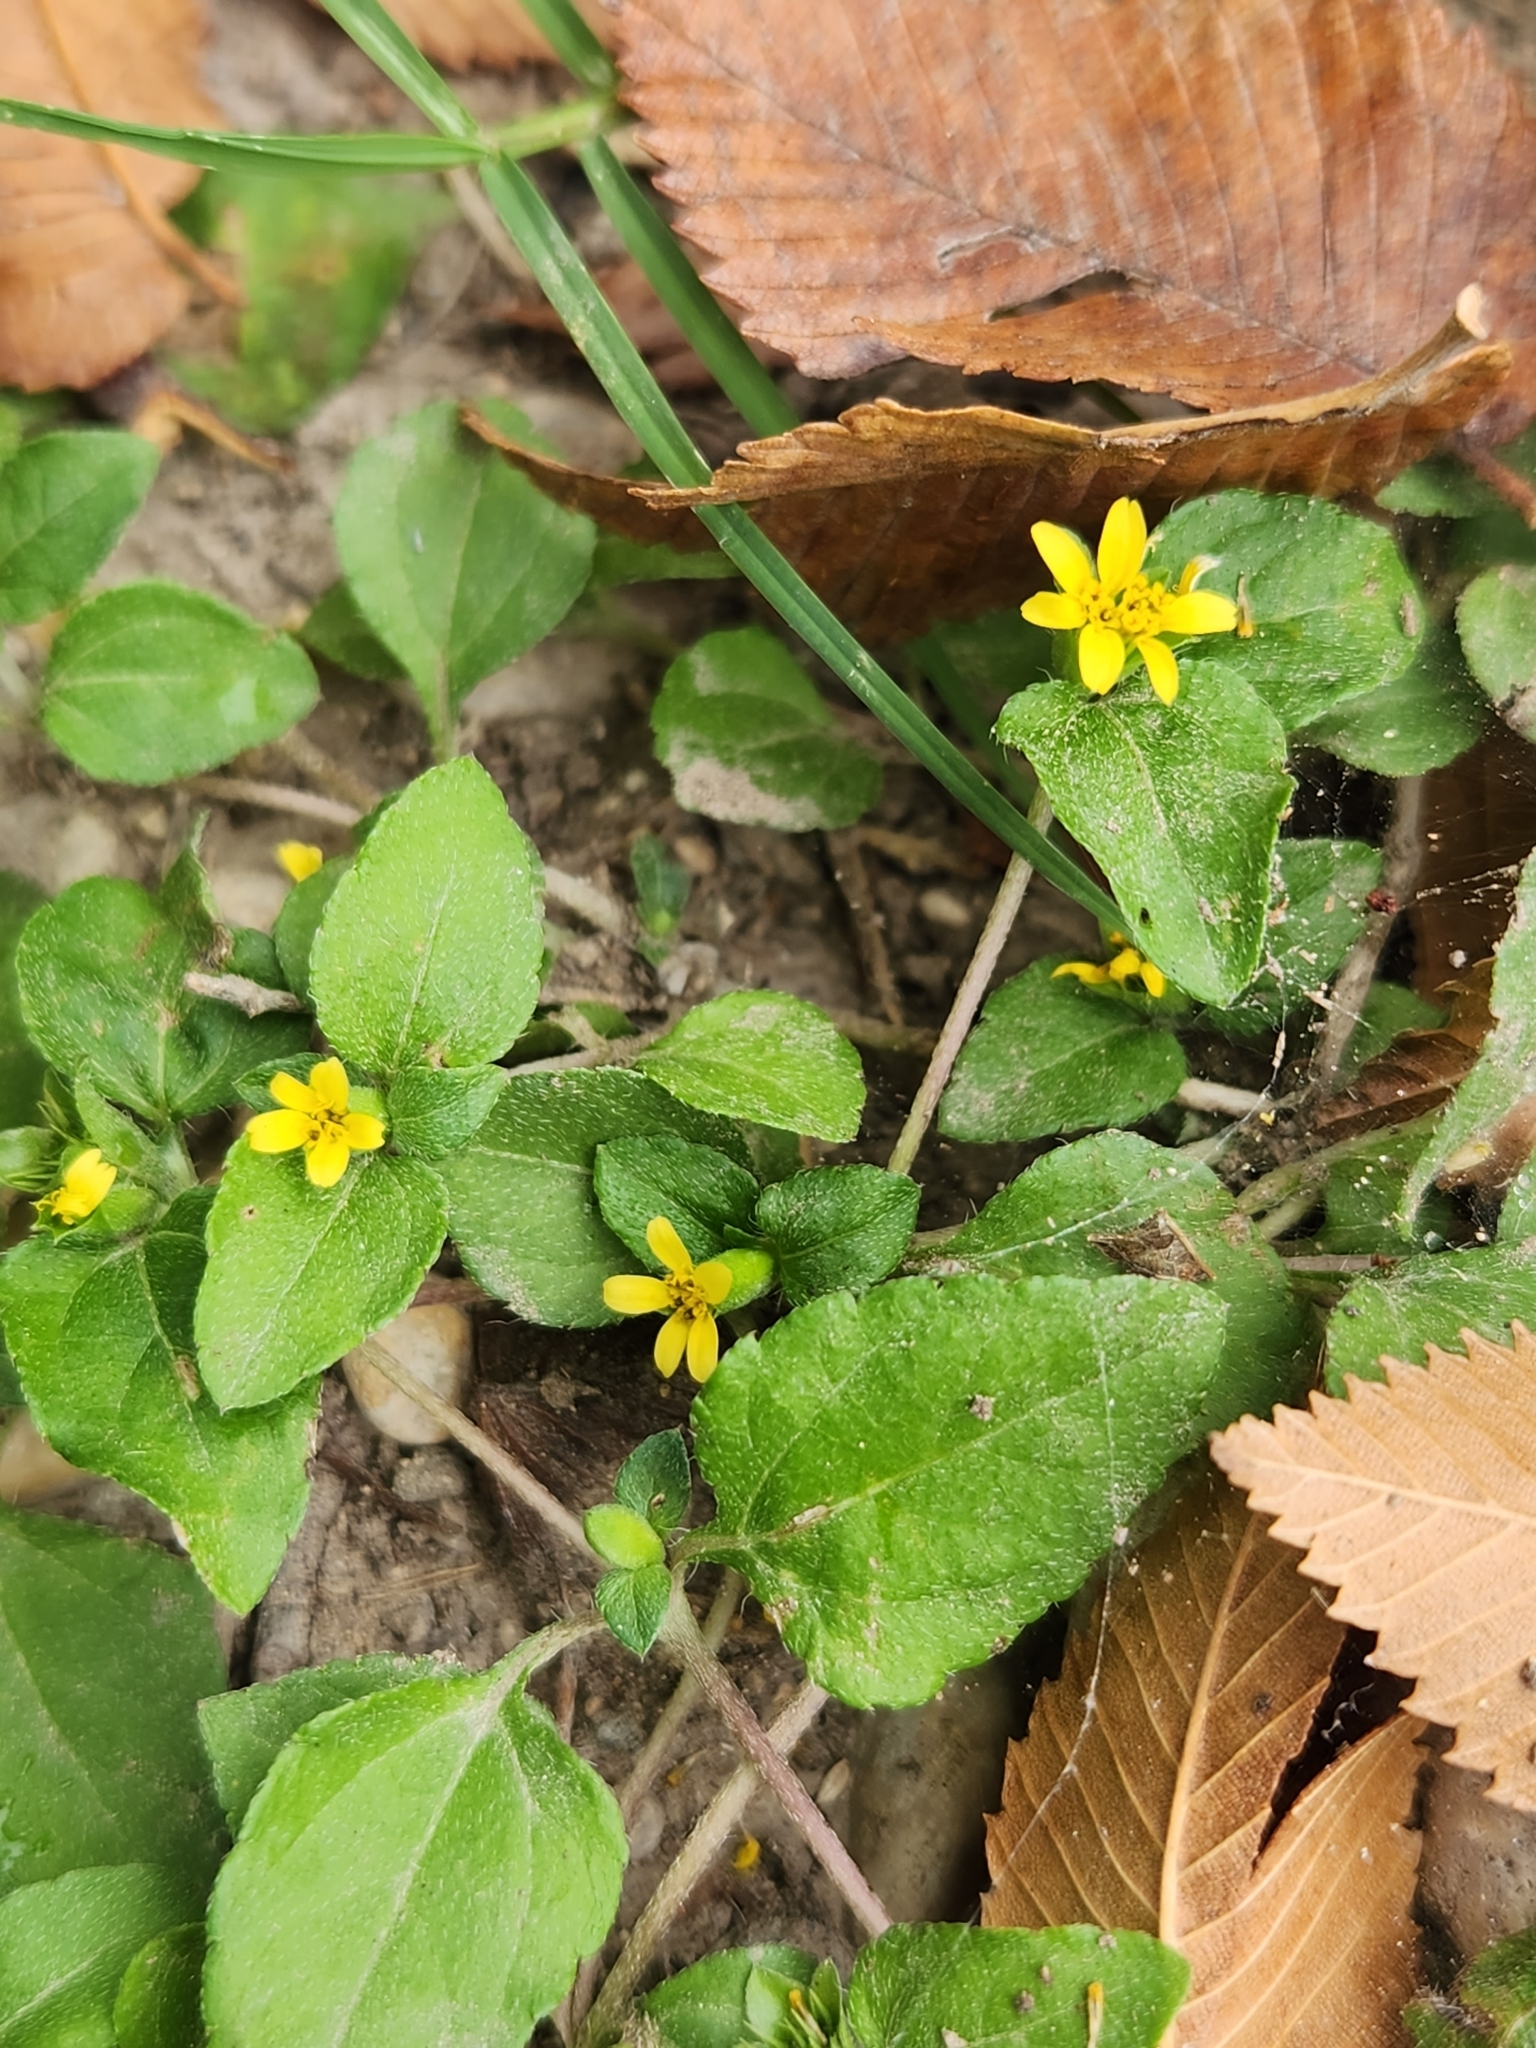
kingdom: Plantae
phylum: Tracheophyta
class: Magnoliopsida
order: Asterales
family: Asteraceae
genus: Calyptocarpus
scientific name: Calyptocarpus vialis
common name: Straggler daisy
